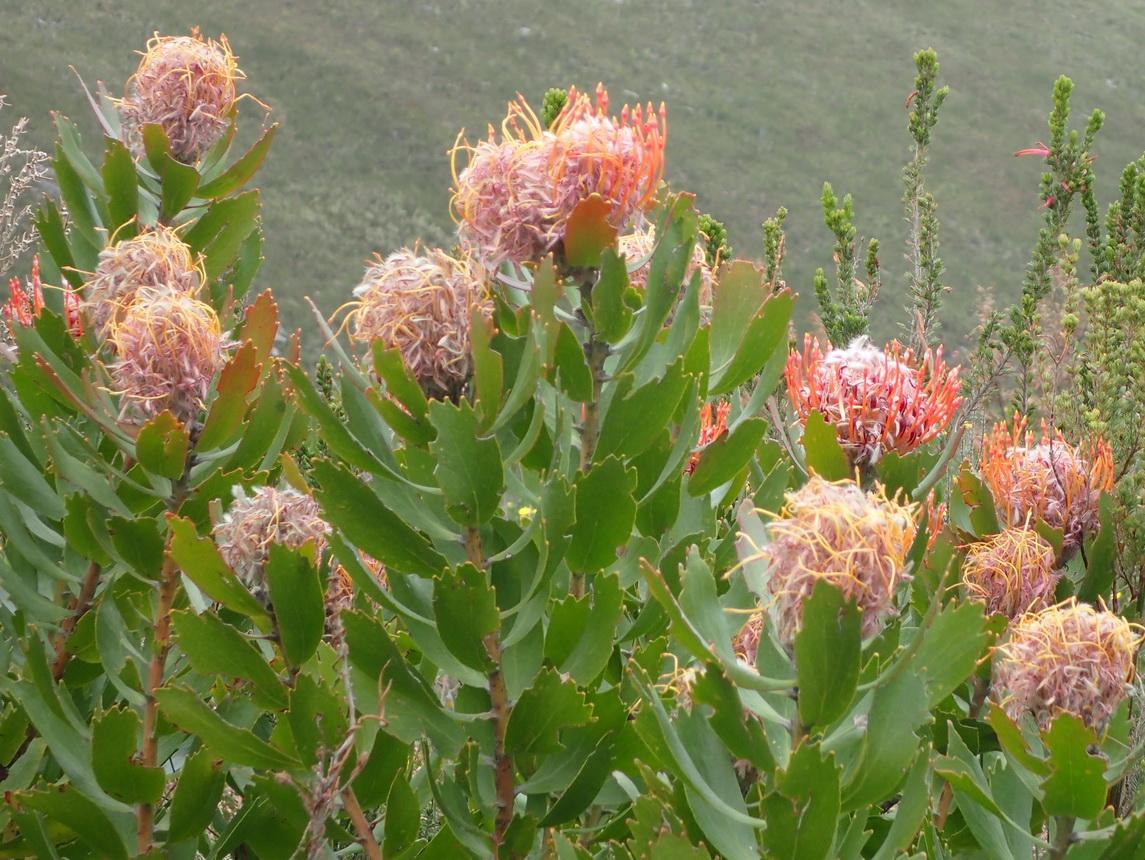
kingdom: Plantae
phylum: Tracheophyta
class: Magnoliopsida
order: Proteales
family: Proteaceae
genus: Leucospermum
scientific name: Leucospermum glabrum
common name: Outeniqua pincushion
